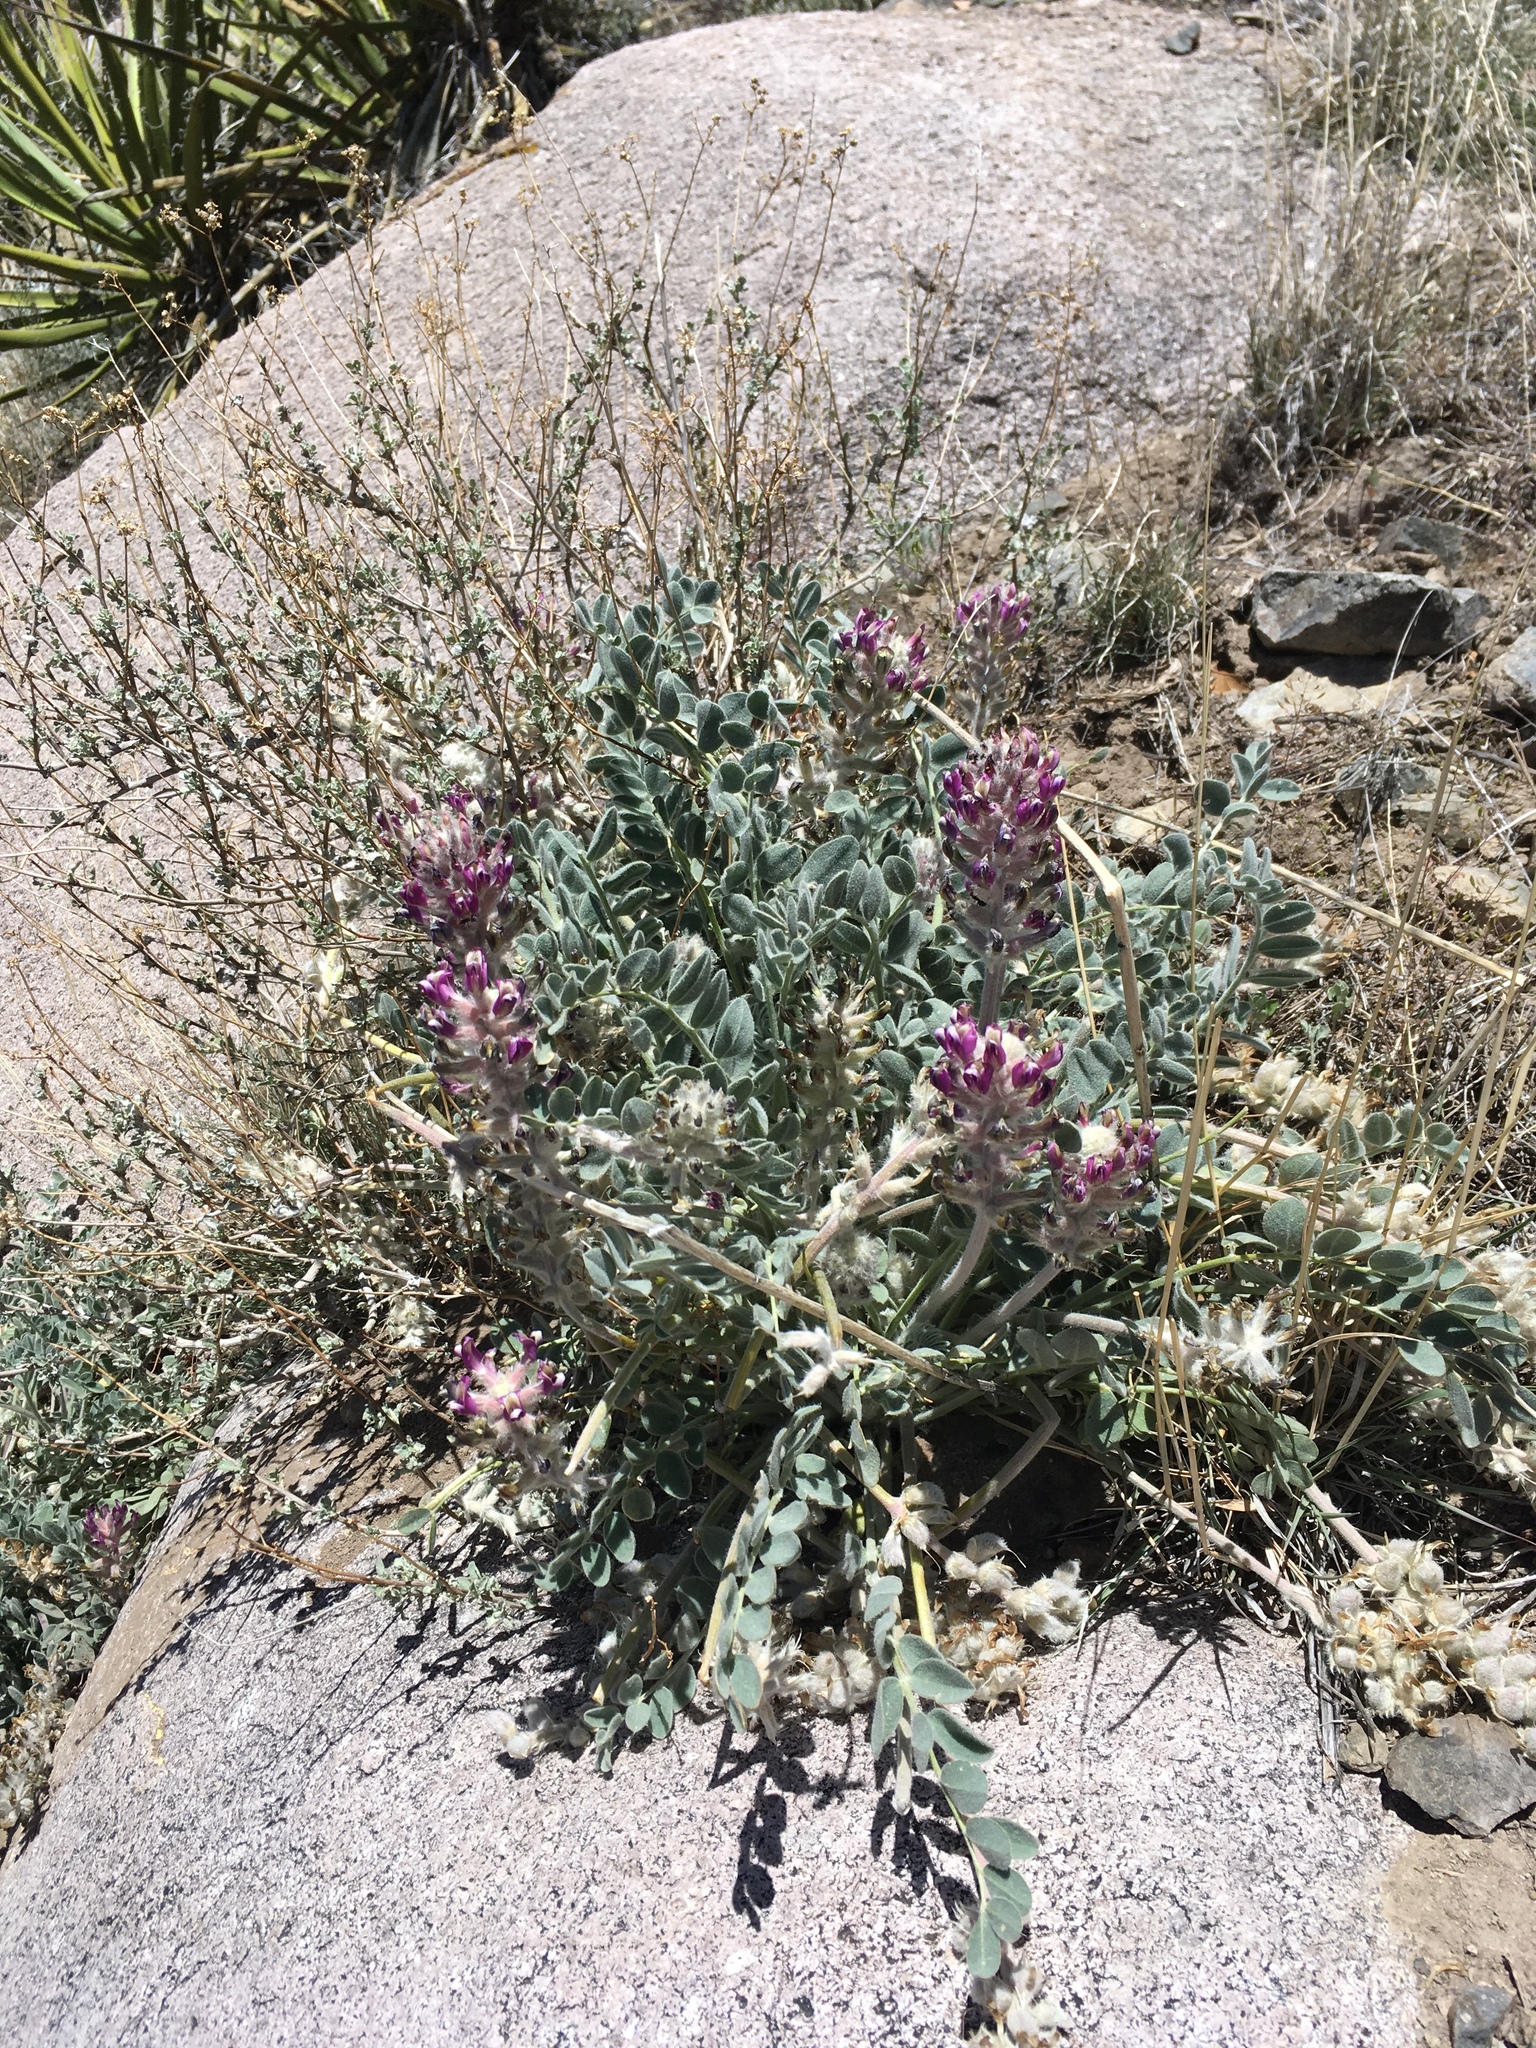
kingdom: Plantae
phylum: Tracheophyta
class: Magnoliopsida
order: Fabales
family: Fabaceae
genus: Astragalus
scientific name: Astragalus mollissimus
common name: Woolly locoweed
